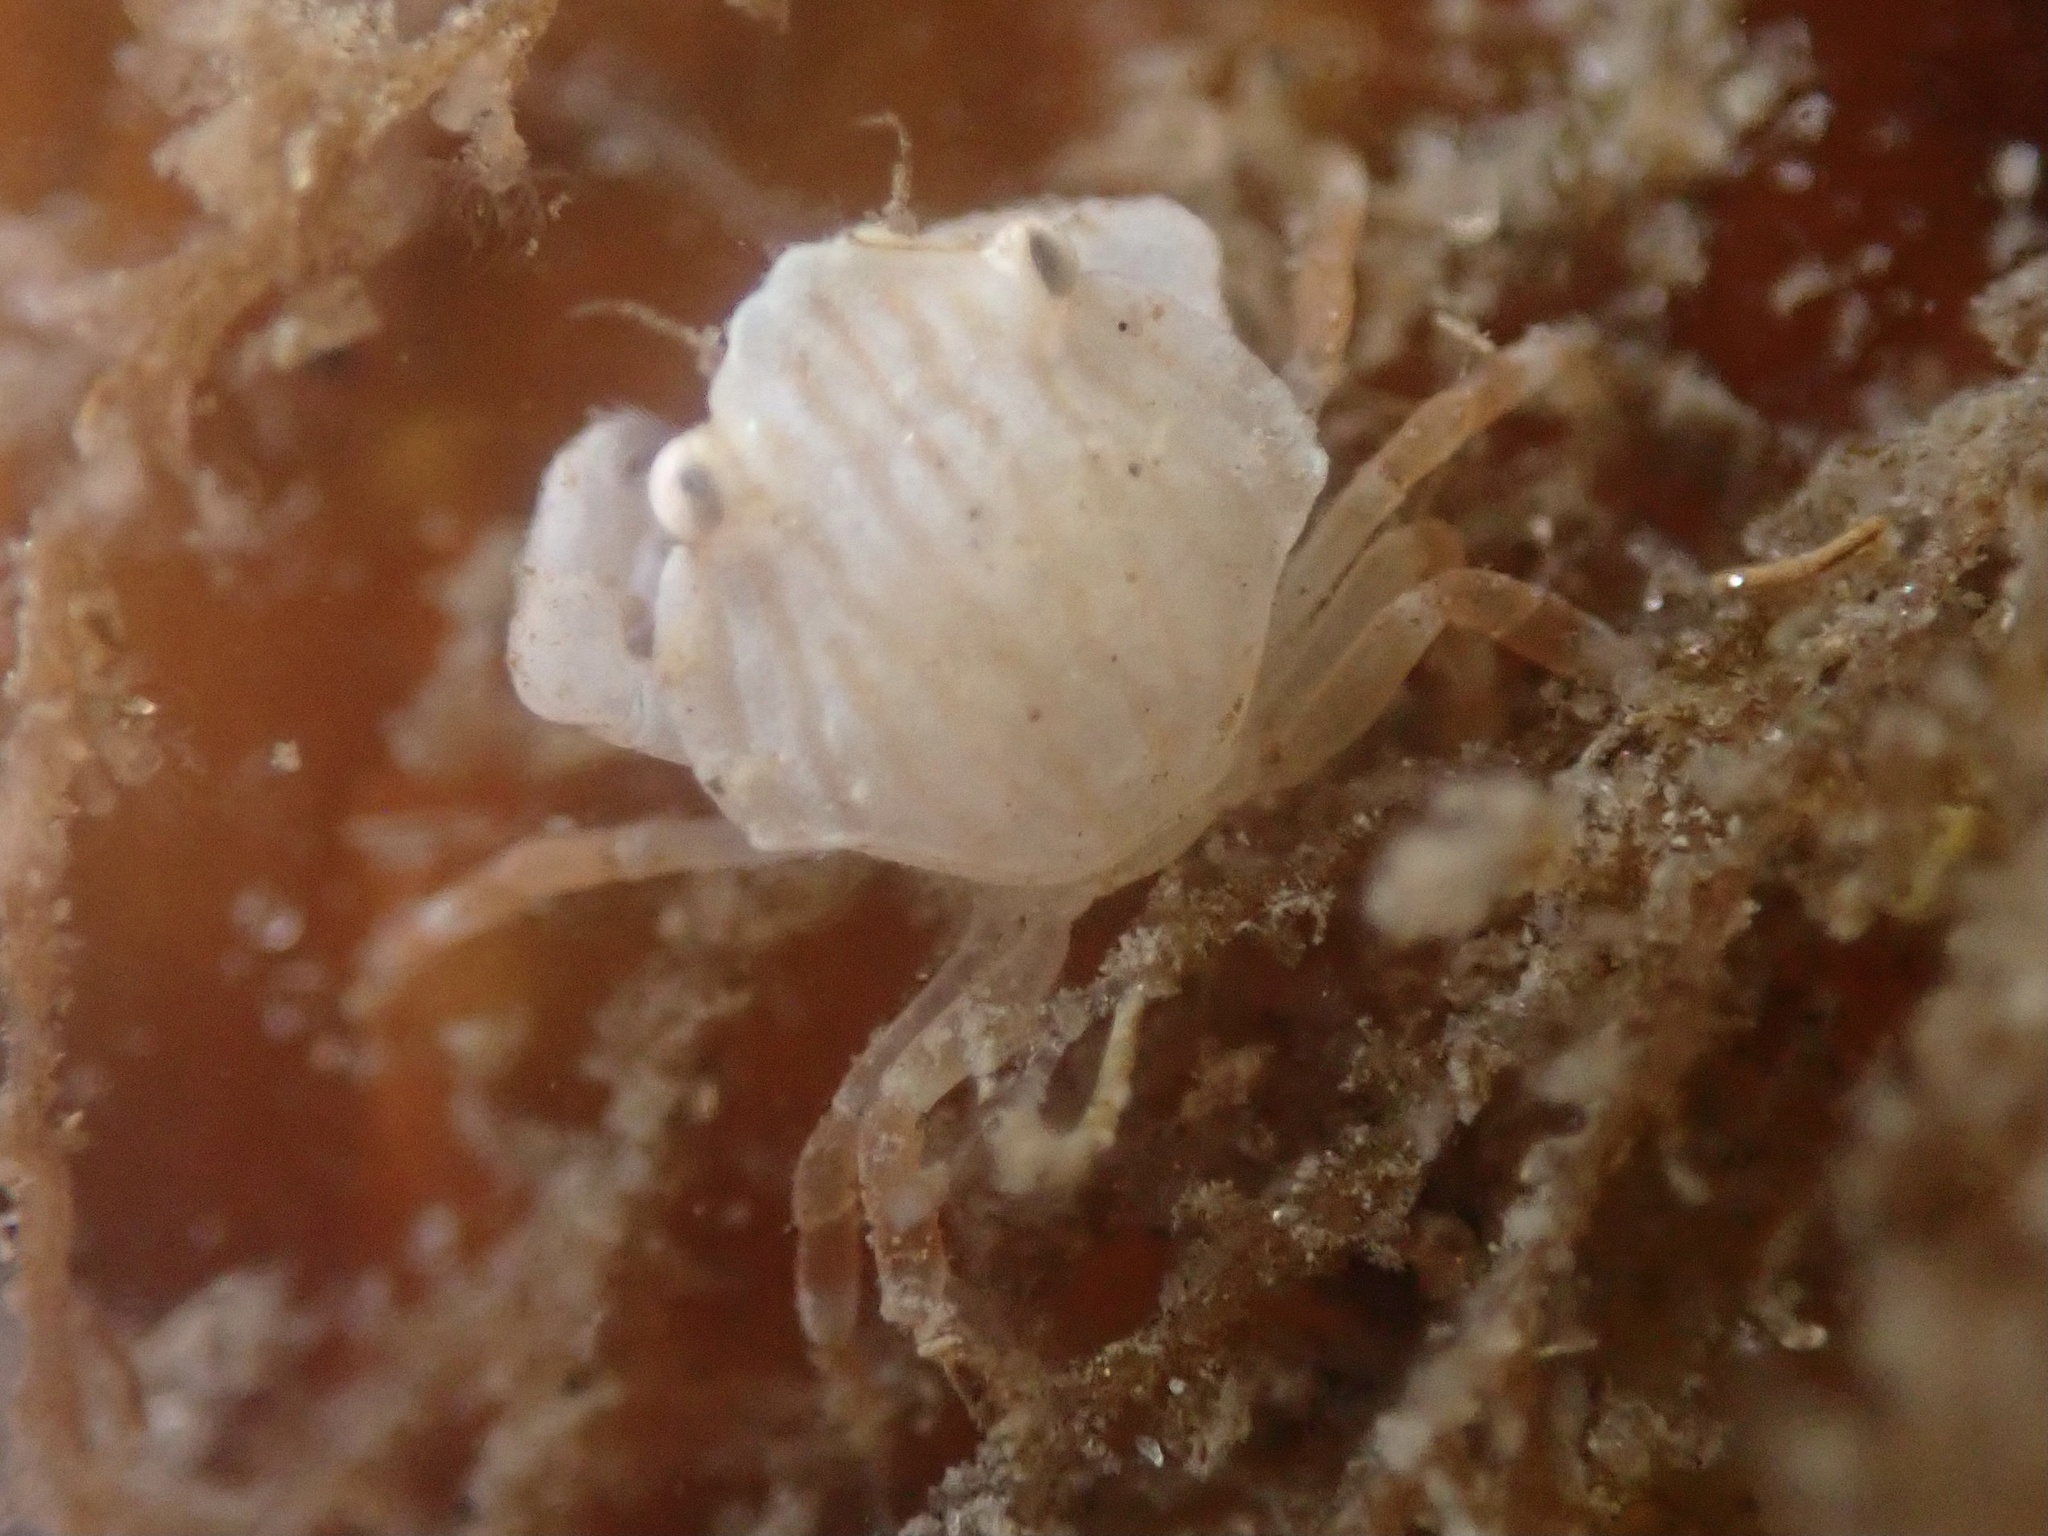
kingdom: Animalia
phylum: Arthropoda
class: Malacostraca
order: Decapoda
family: Cancridae
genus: Cancer
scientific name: Cancer productus
